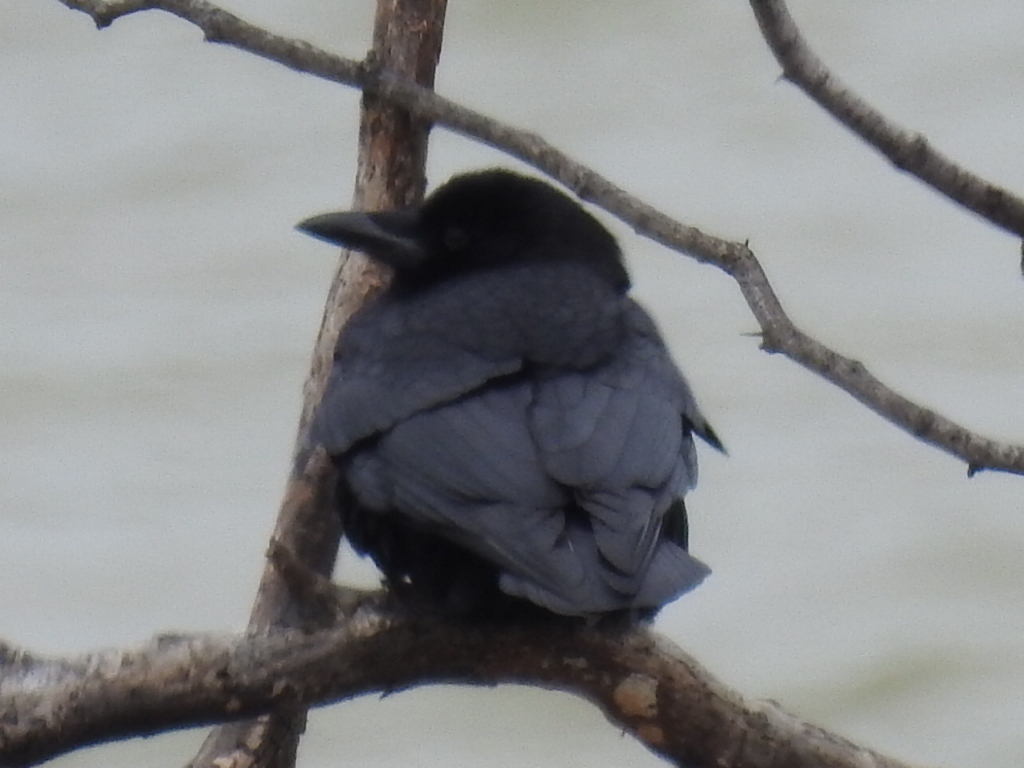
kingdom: Animalia
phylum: Chordata
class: Aves
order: Passeriformes
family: Corvidae
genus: Corvus
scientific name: Corvus brachyrhynchos
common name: American crow
